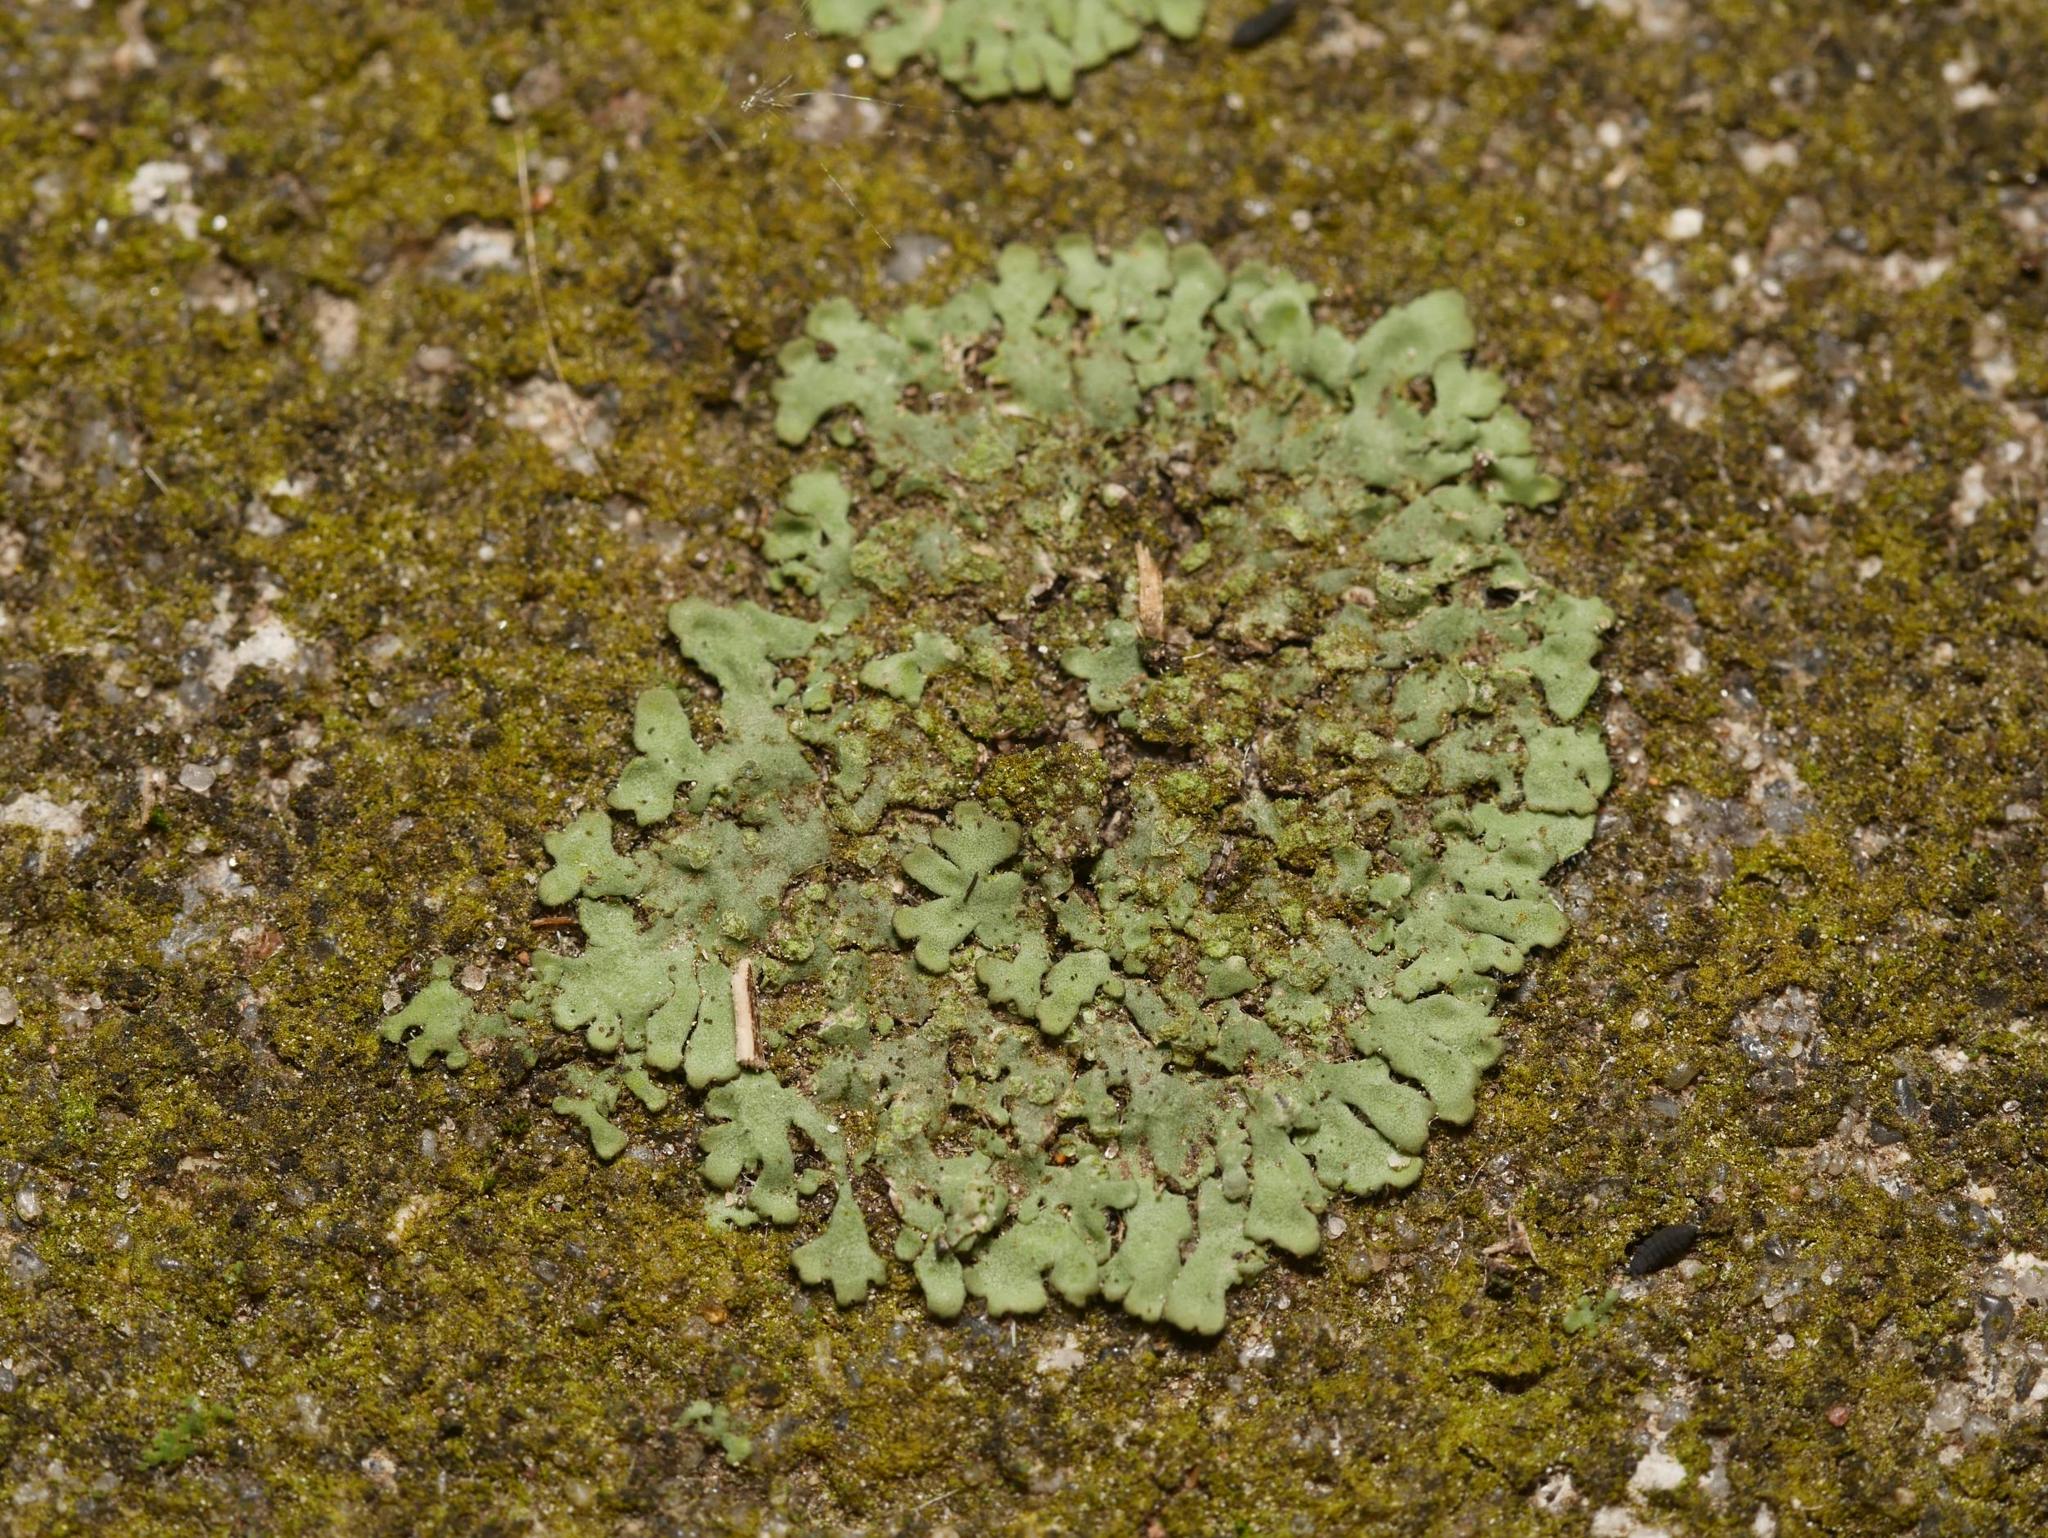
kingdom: Fungi
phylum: Ascomycota
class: Lecanoromycetes
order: Caliciales
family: Physciaceae
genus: Phaeophyscia
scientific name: Phaeophyscia orbicularis
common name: Mealy shadow lichen
